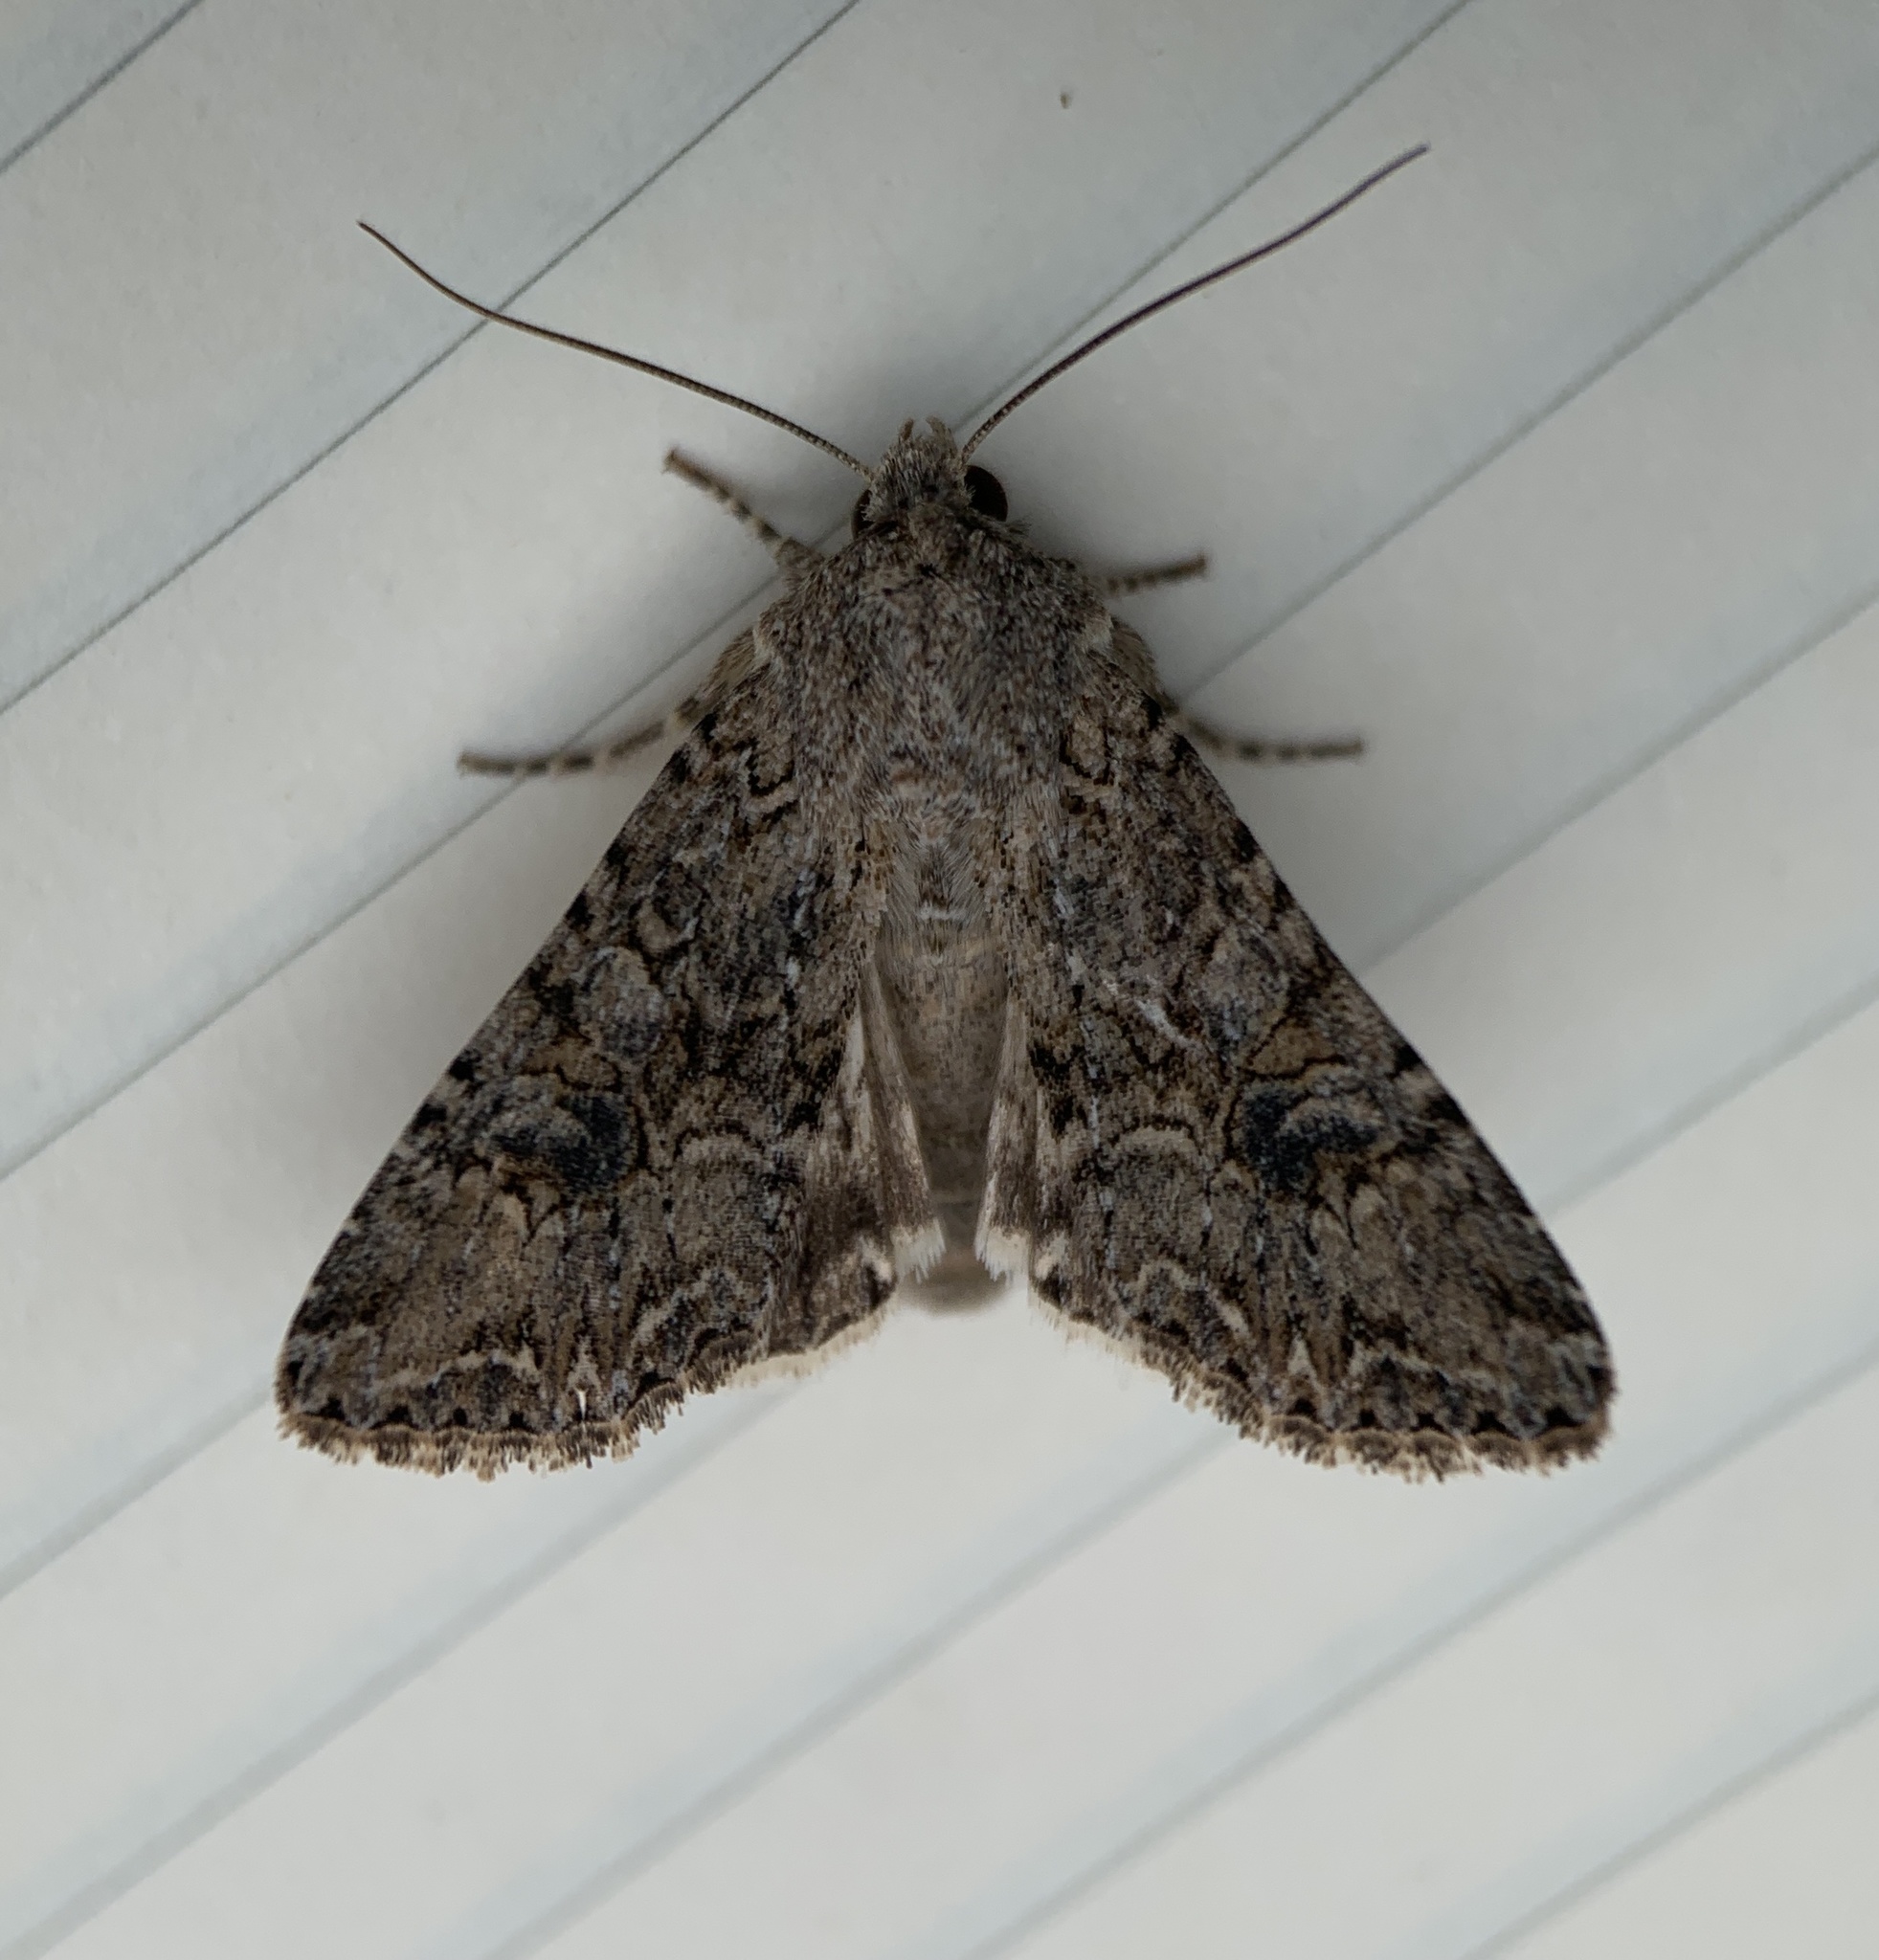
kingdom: Animalia
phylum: Arthropoda
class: Insecta
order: Lepidoptera
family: Noctuidae
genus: Anarta
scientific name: Anarta trifolii
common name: Clover cutworm moth
